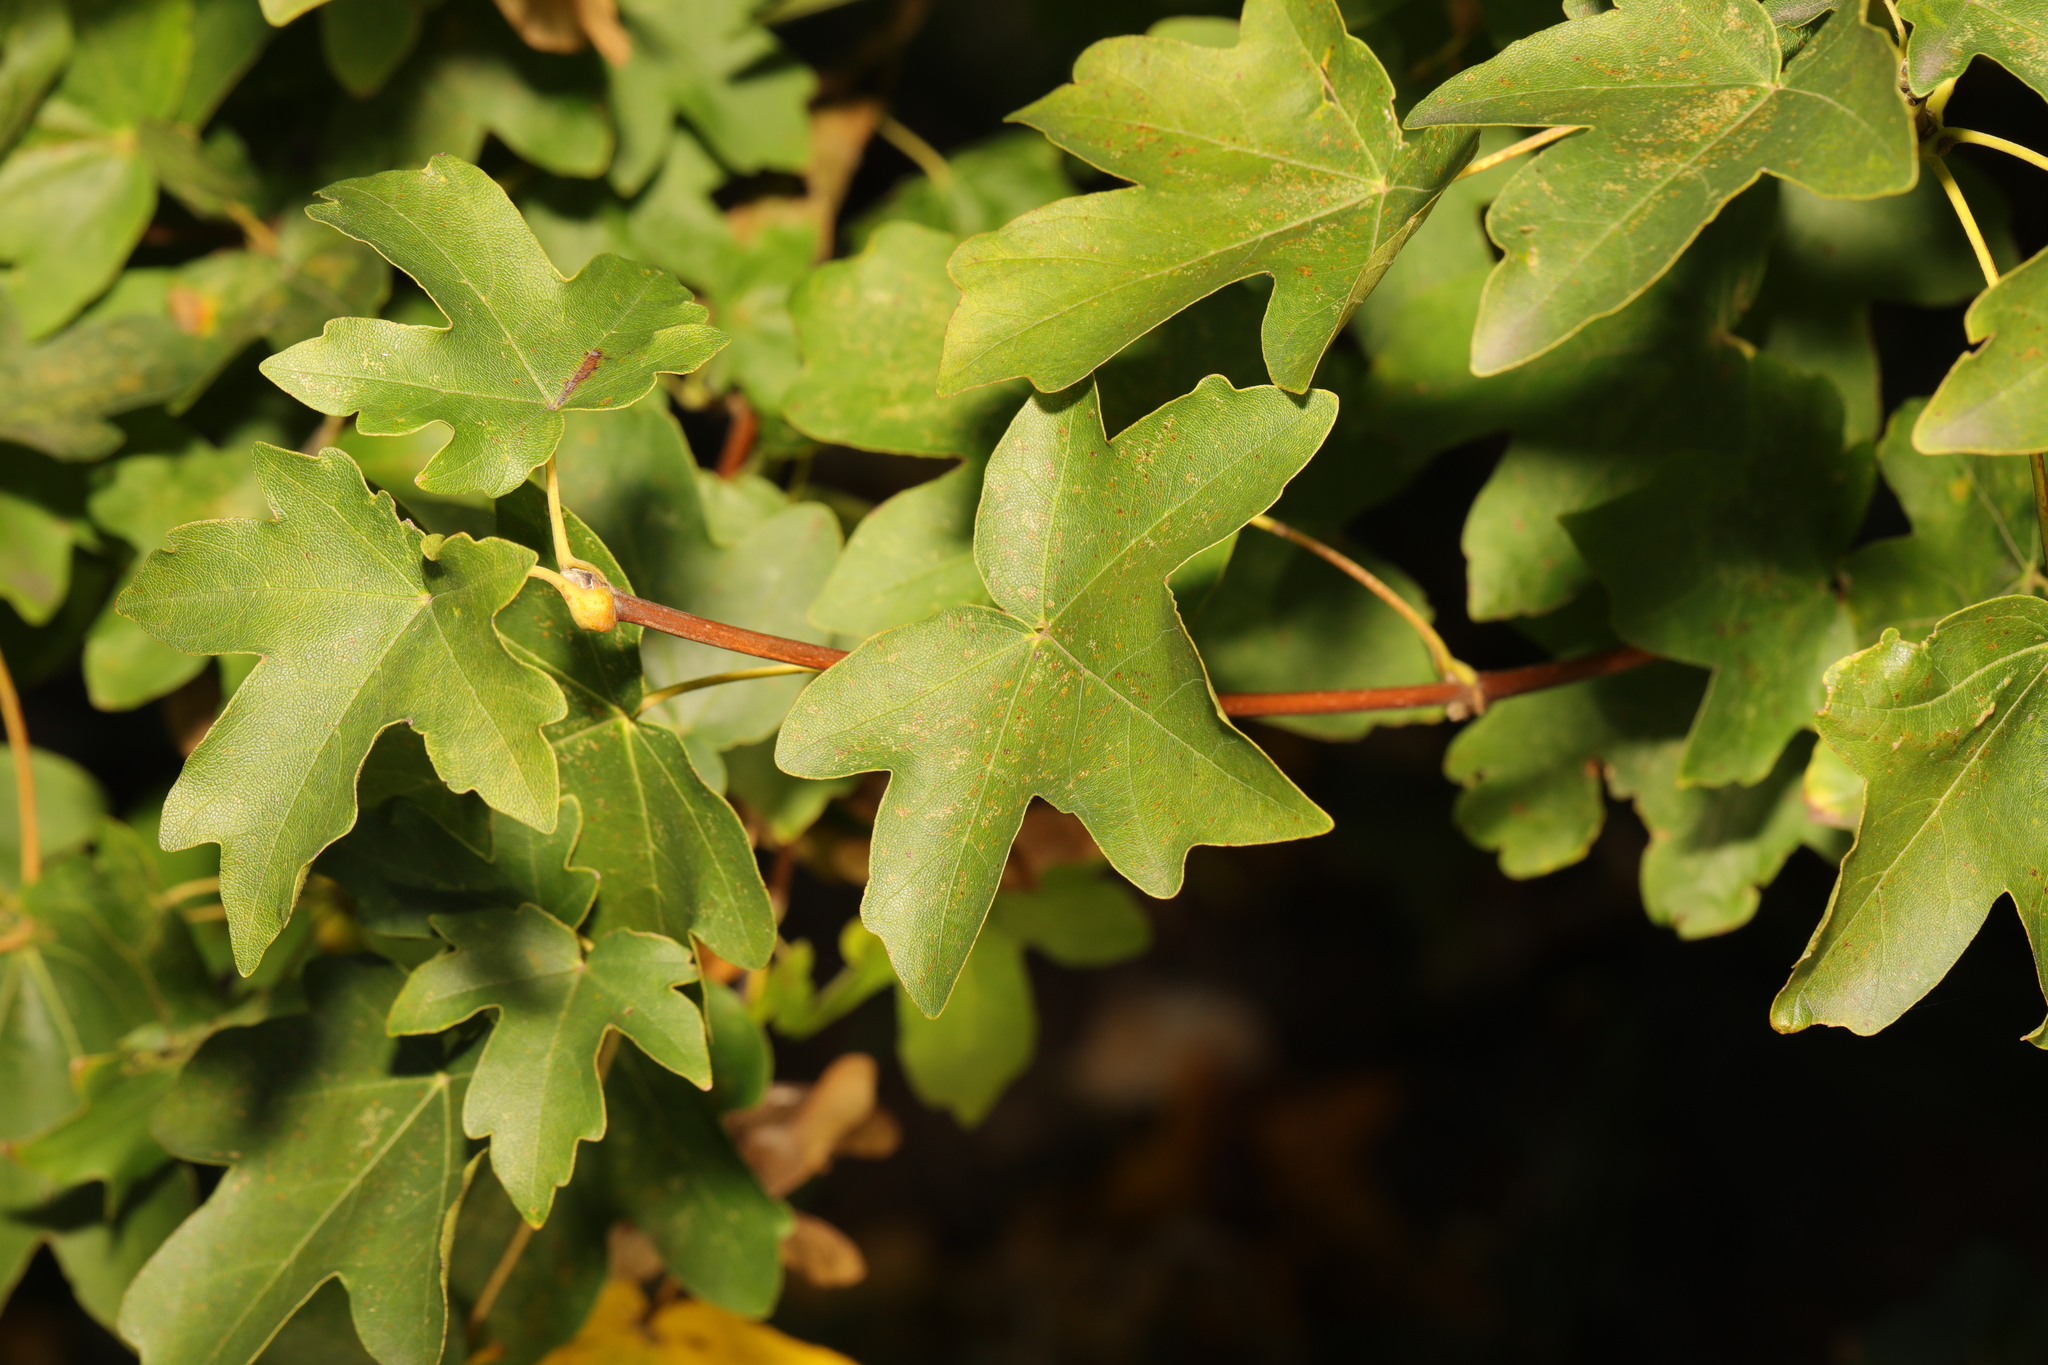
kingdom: Plantae
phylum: Tracheophyta
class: Magnoliopsida
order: Sapindales
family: Sapindaceae
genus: Acer
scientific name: Acer campestre
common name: Field maple
